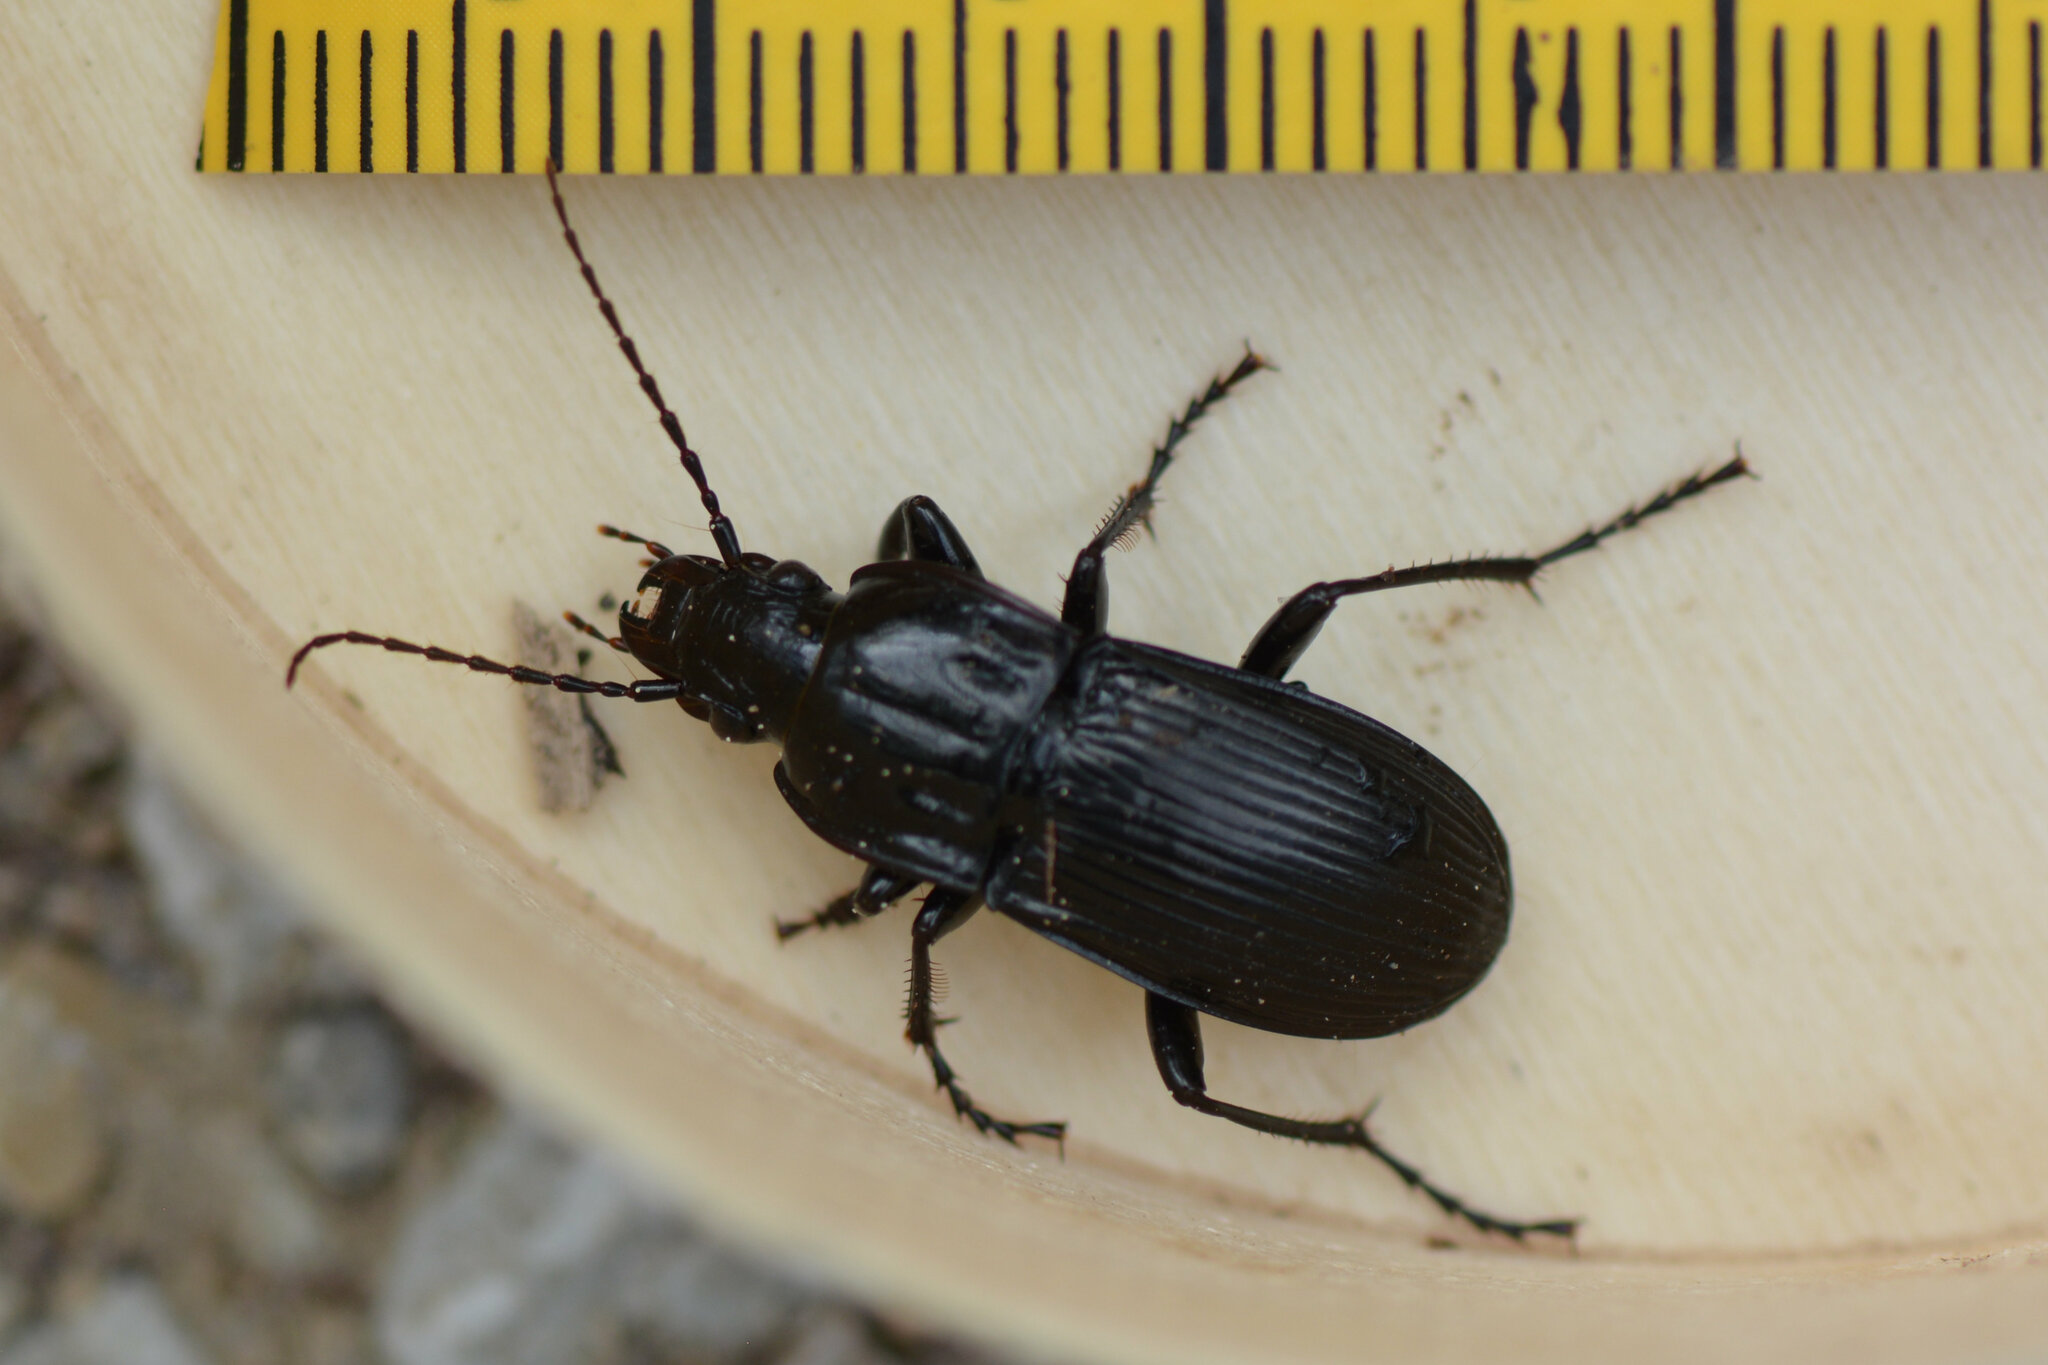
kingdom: Animalia
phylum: Arthropoda
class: Insecta
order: Coleoptera
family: Carabidae
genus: Abax
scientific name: Abax parallelepipedus
